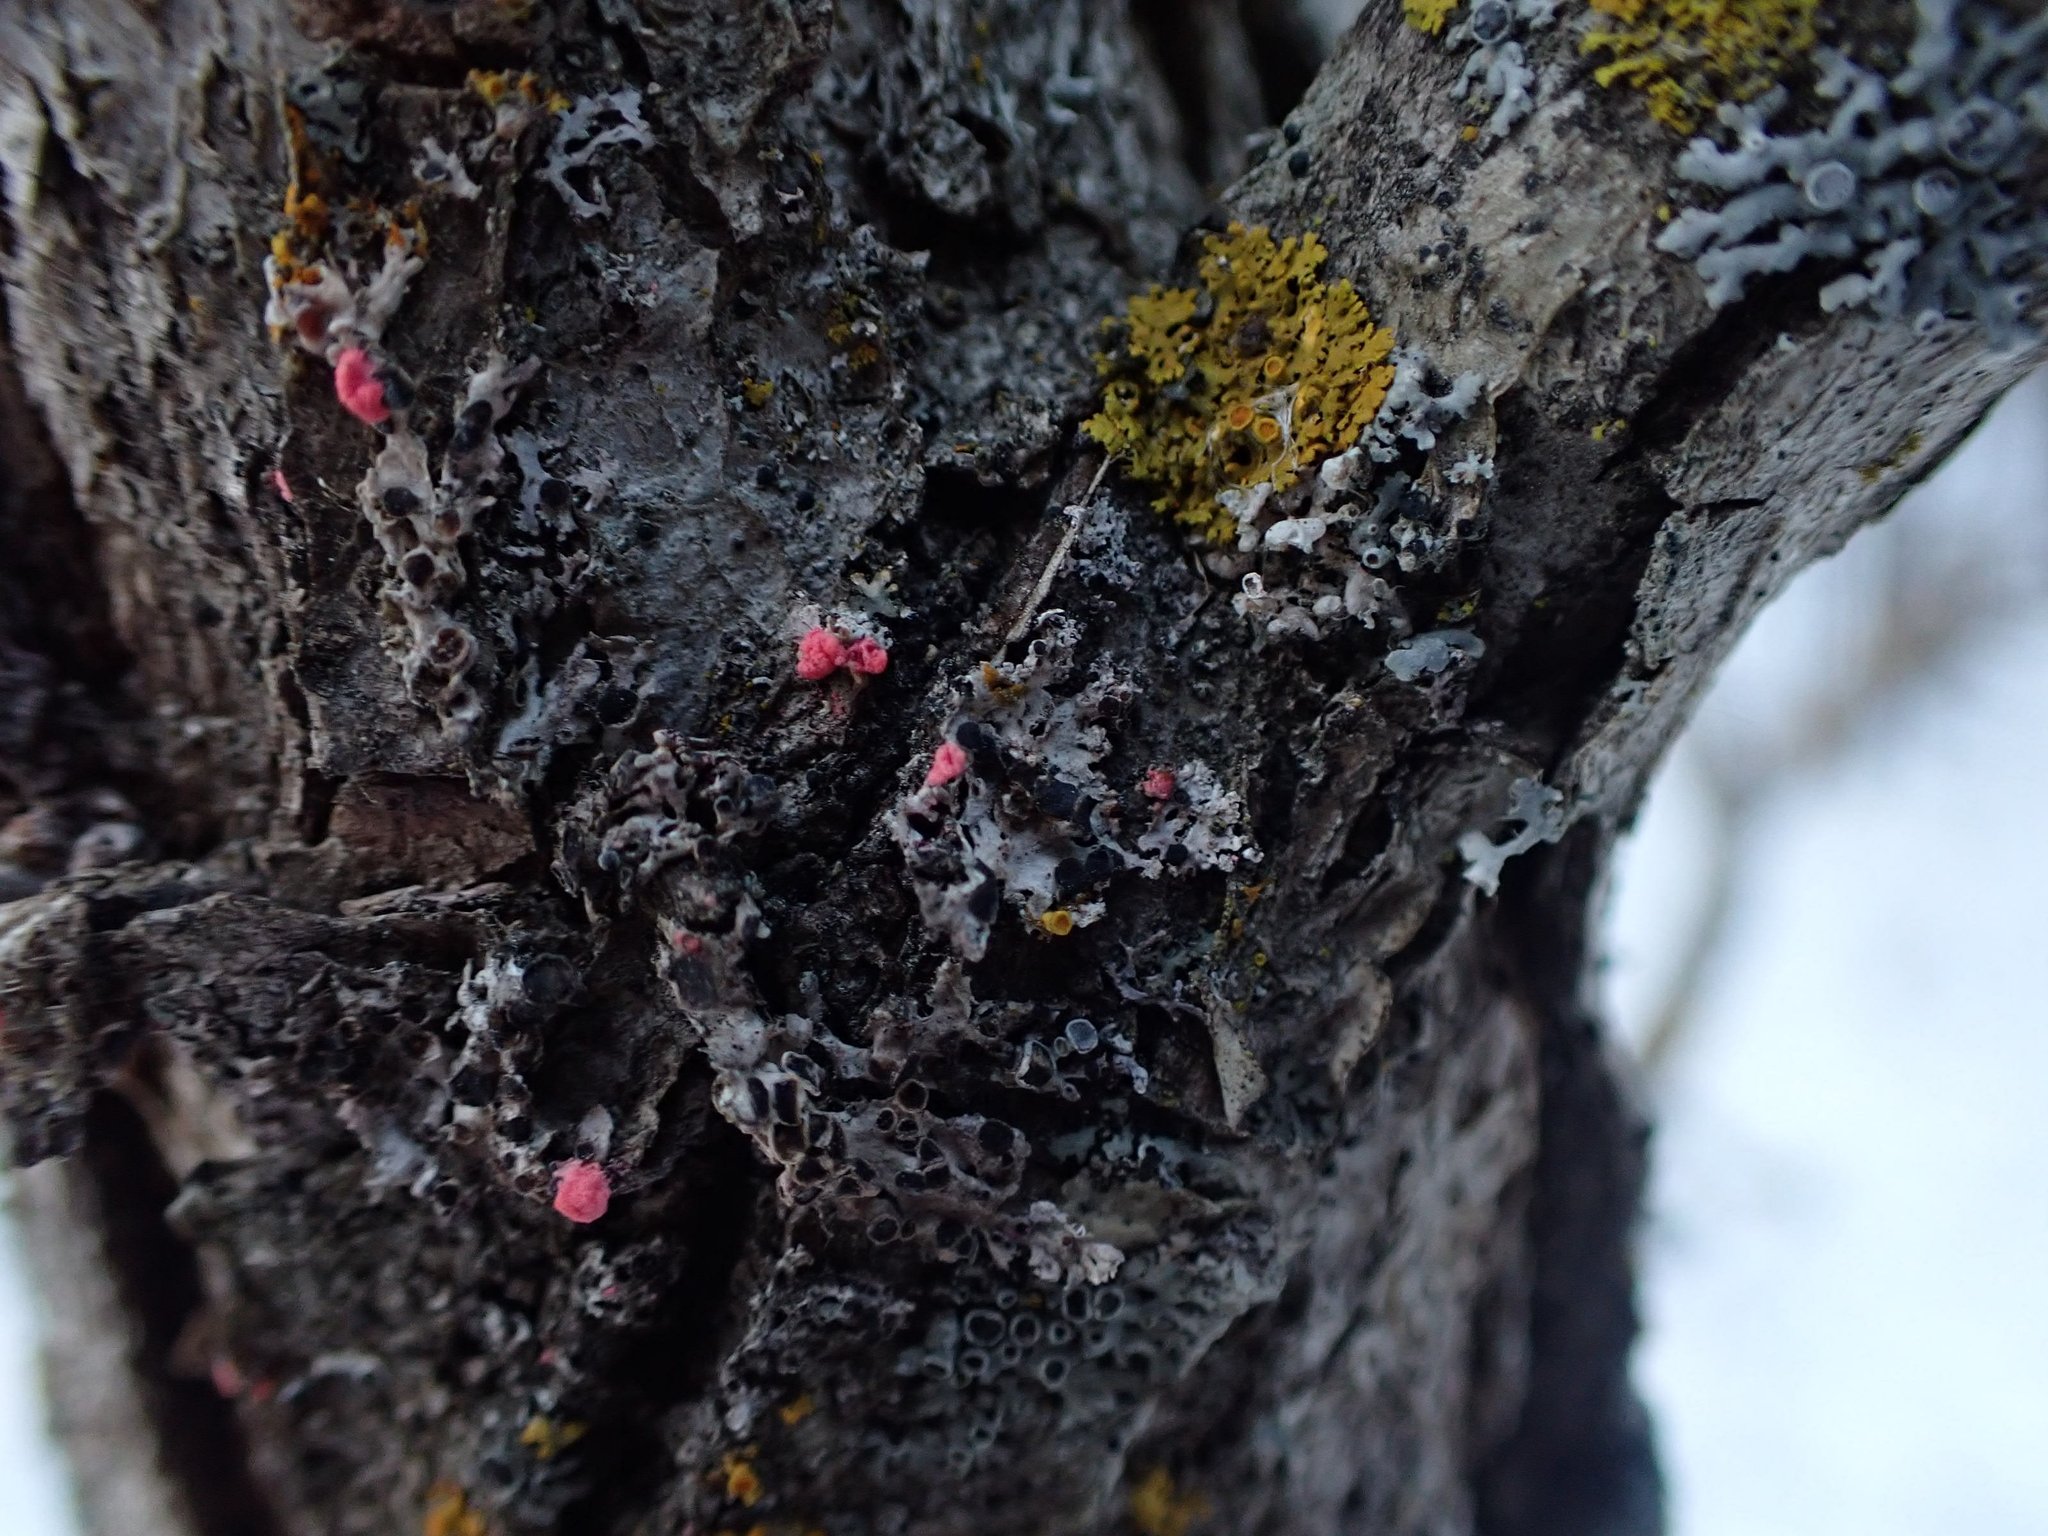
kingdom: Fungi
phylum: Ascomycota
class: Sordariomycetes
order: Hypocreales
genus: Illosporiopsis
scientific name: Illosporiopsis christiansenii
